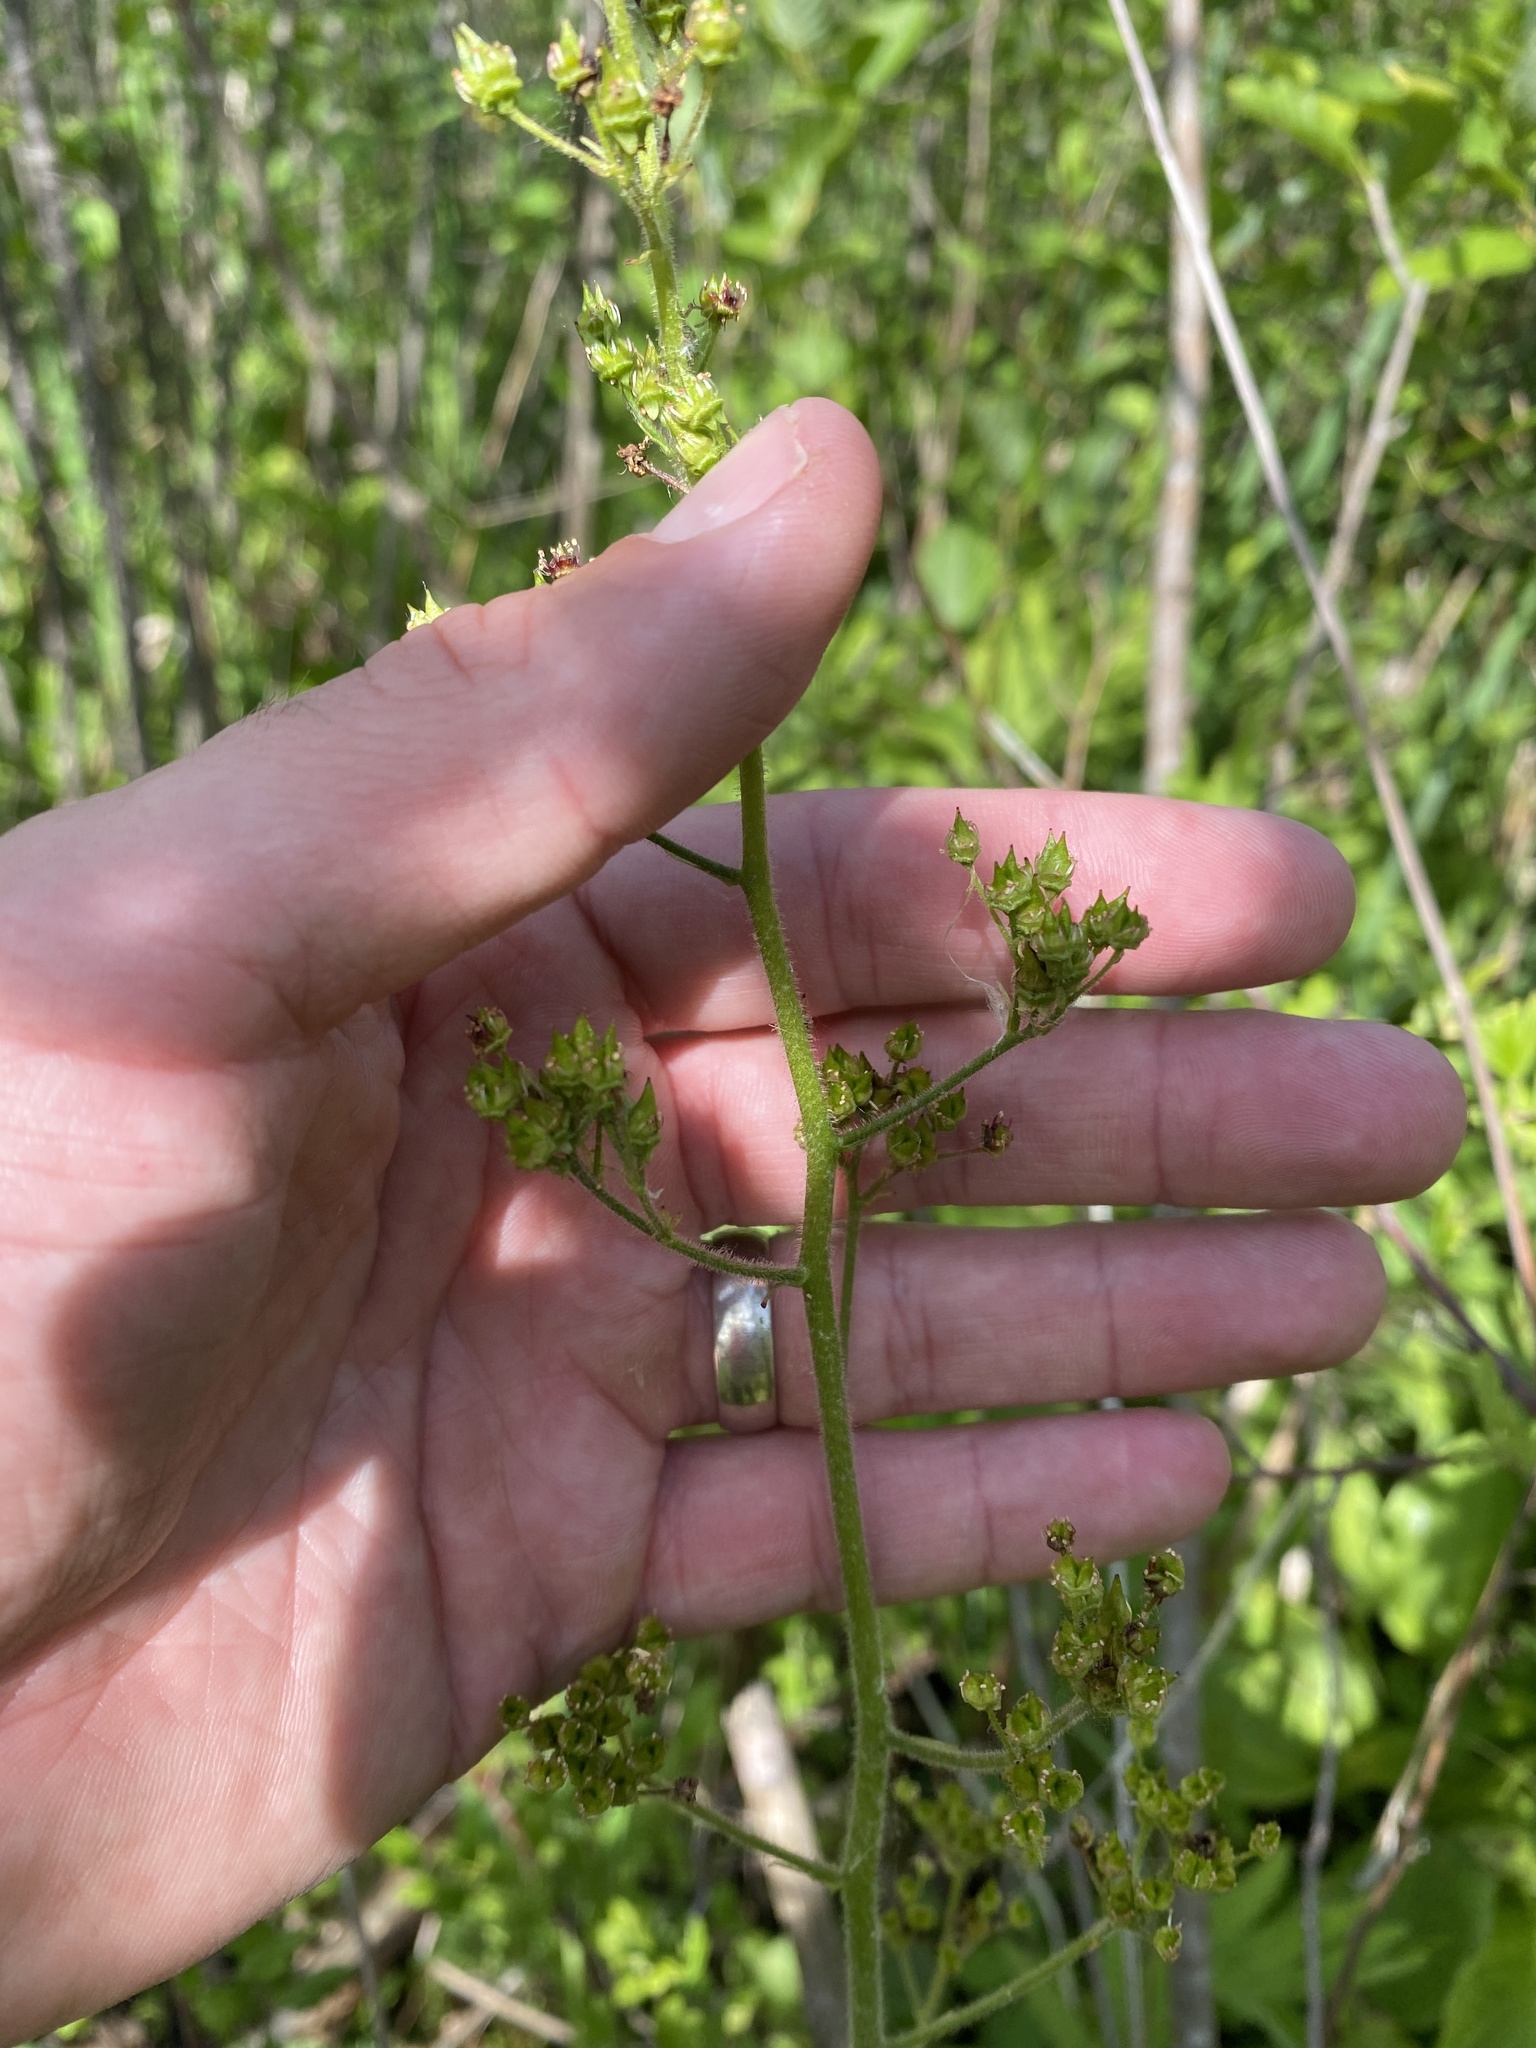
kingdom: Plantae
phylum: Tracheophyta
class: Magnoliopsida
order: Saxifragales
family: Saxifragaceae
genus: Micranthes
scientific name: Micranthes pensylvanica
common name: Marsh saxifrage
